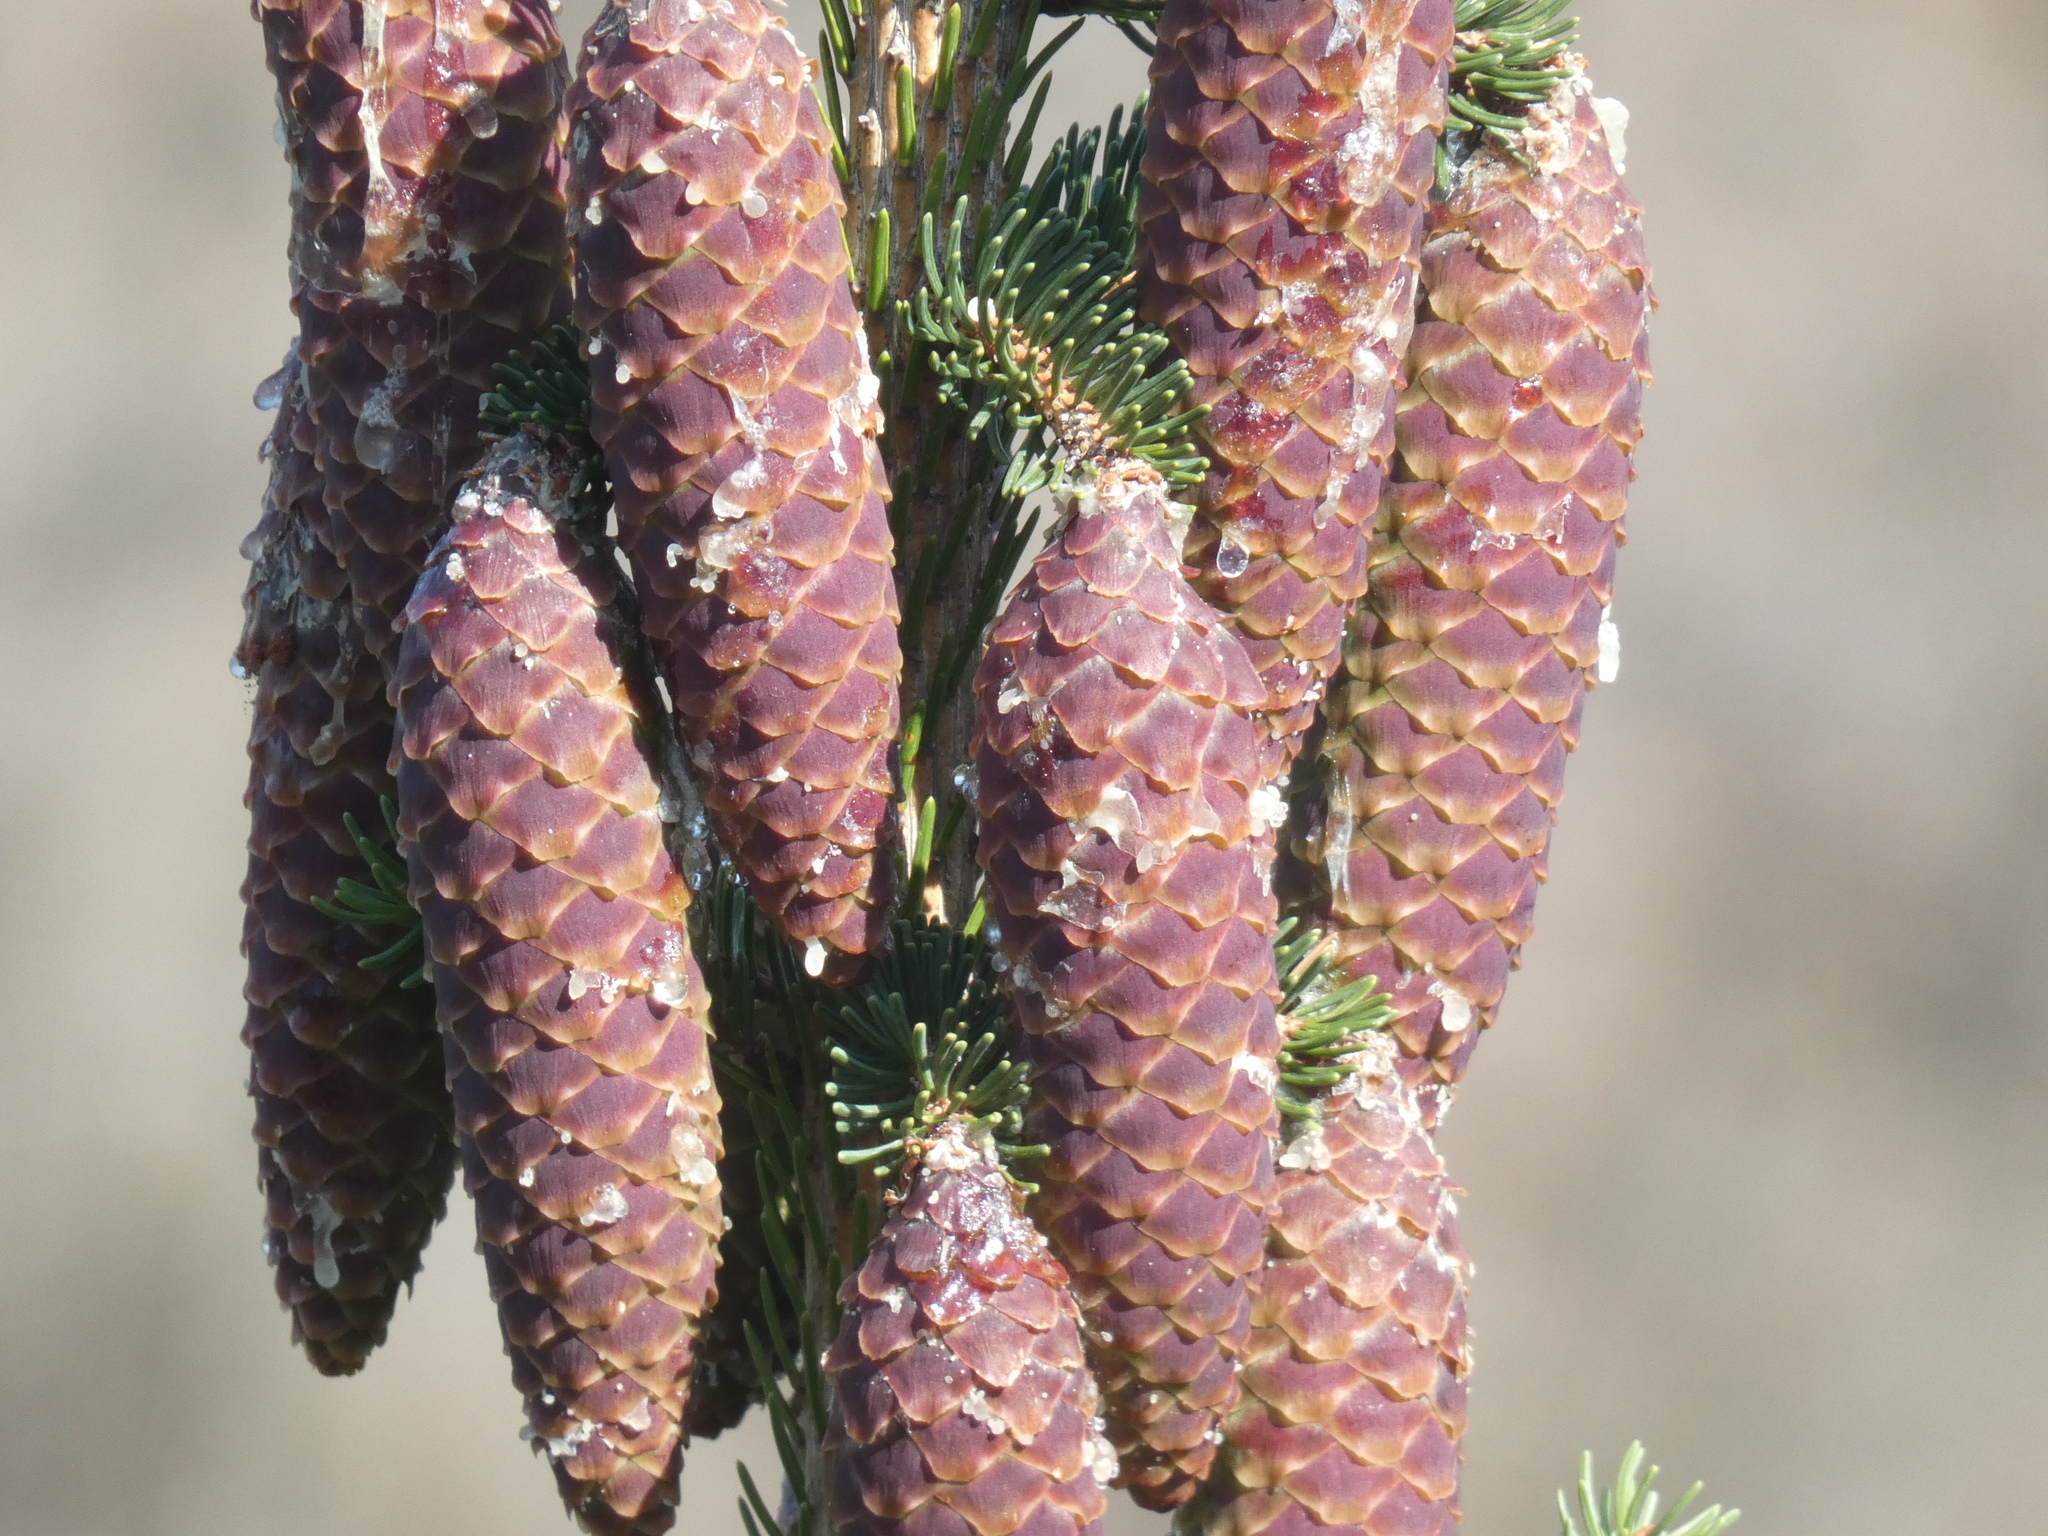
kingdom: Plantae
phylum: Tracheophyta
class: Pinopsida
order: Pinales
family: Pinaceae
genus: Picea
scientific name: Picea abies
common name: Norway spruce
